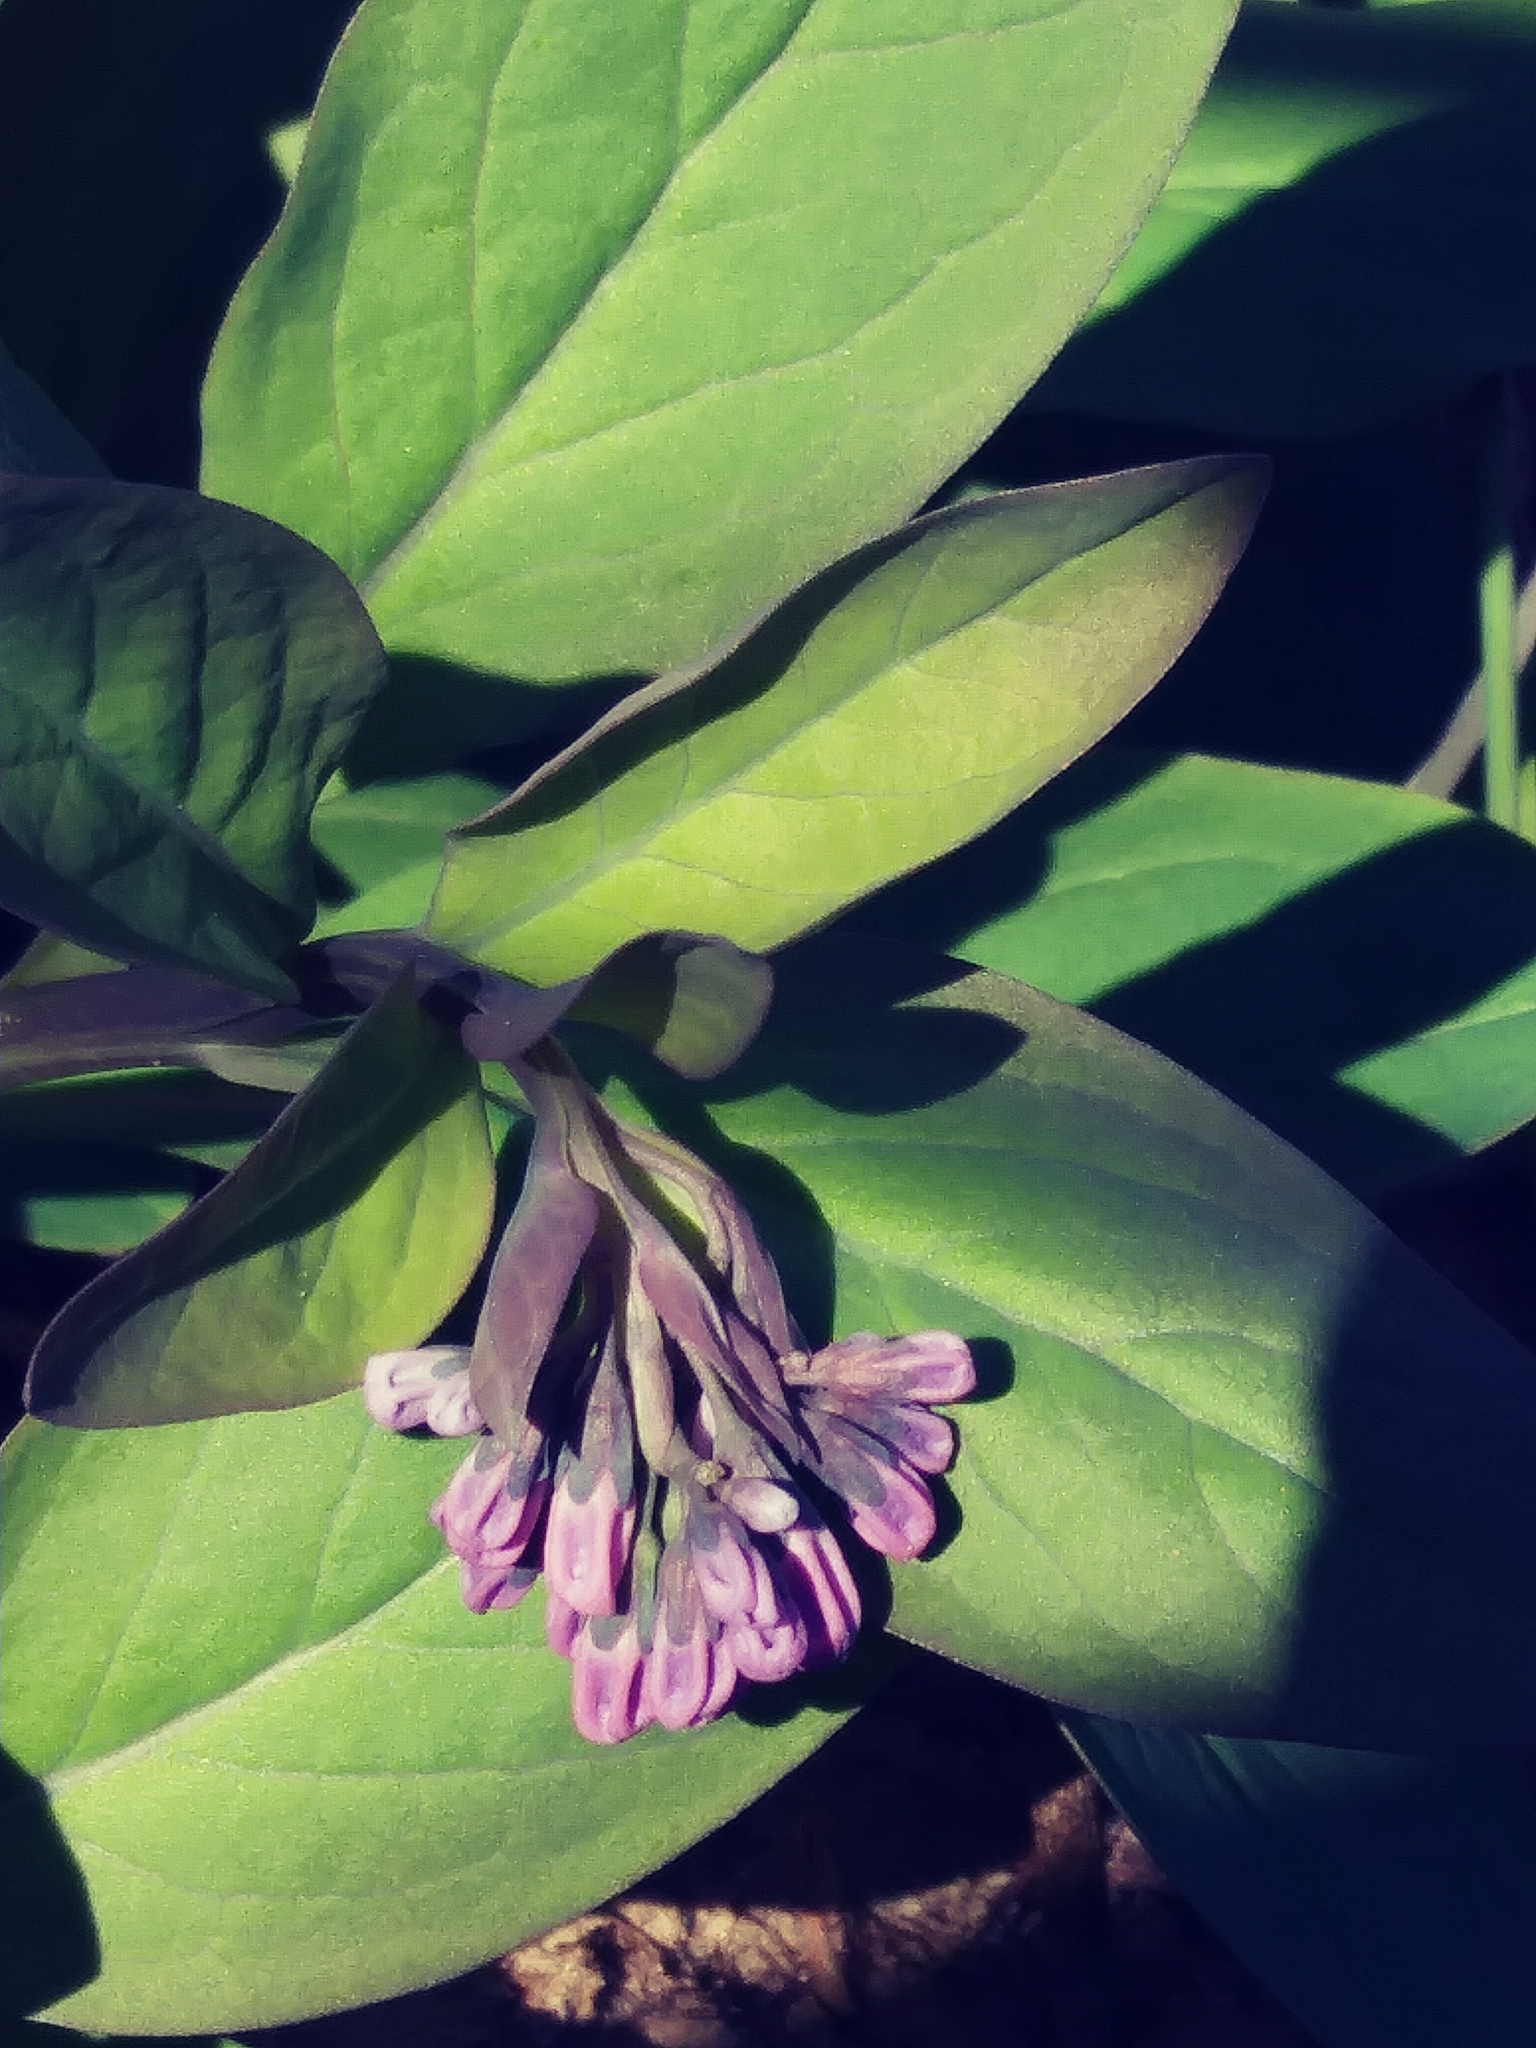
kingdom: Plantae
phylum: Tracheophyta
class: Magnoliopsida
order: Boraginales
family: Boraginaceae
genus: Mertensia
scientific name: Mertensia virginica
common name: Virginia bluebells
